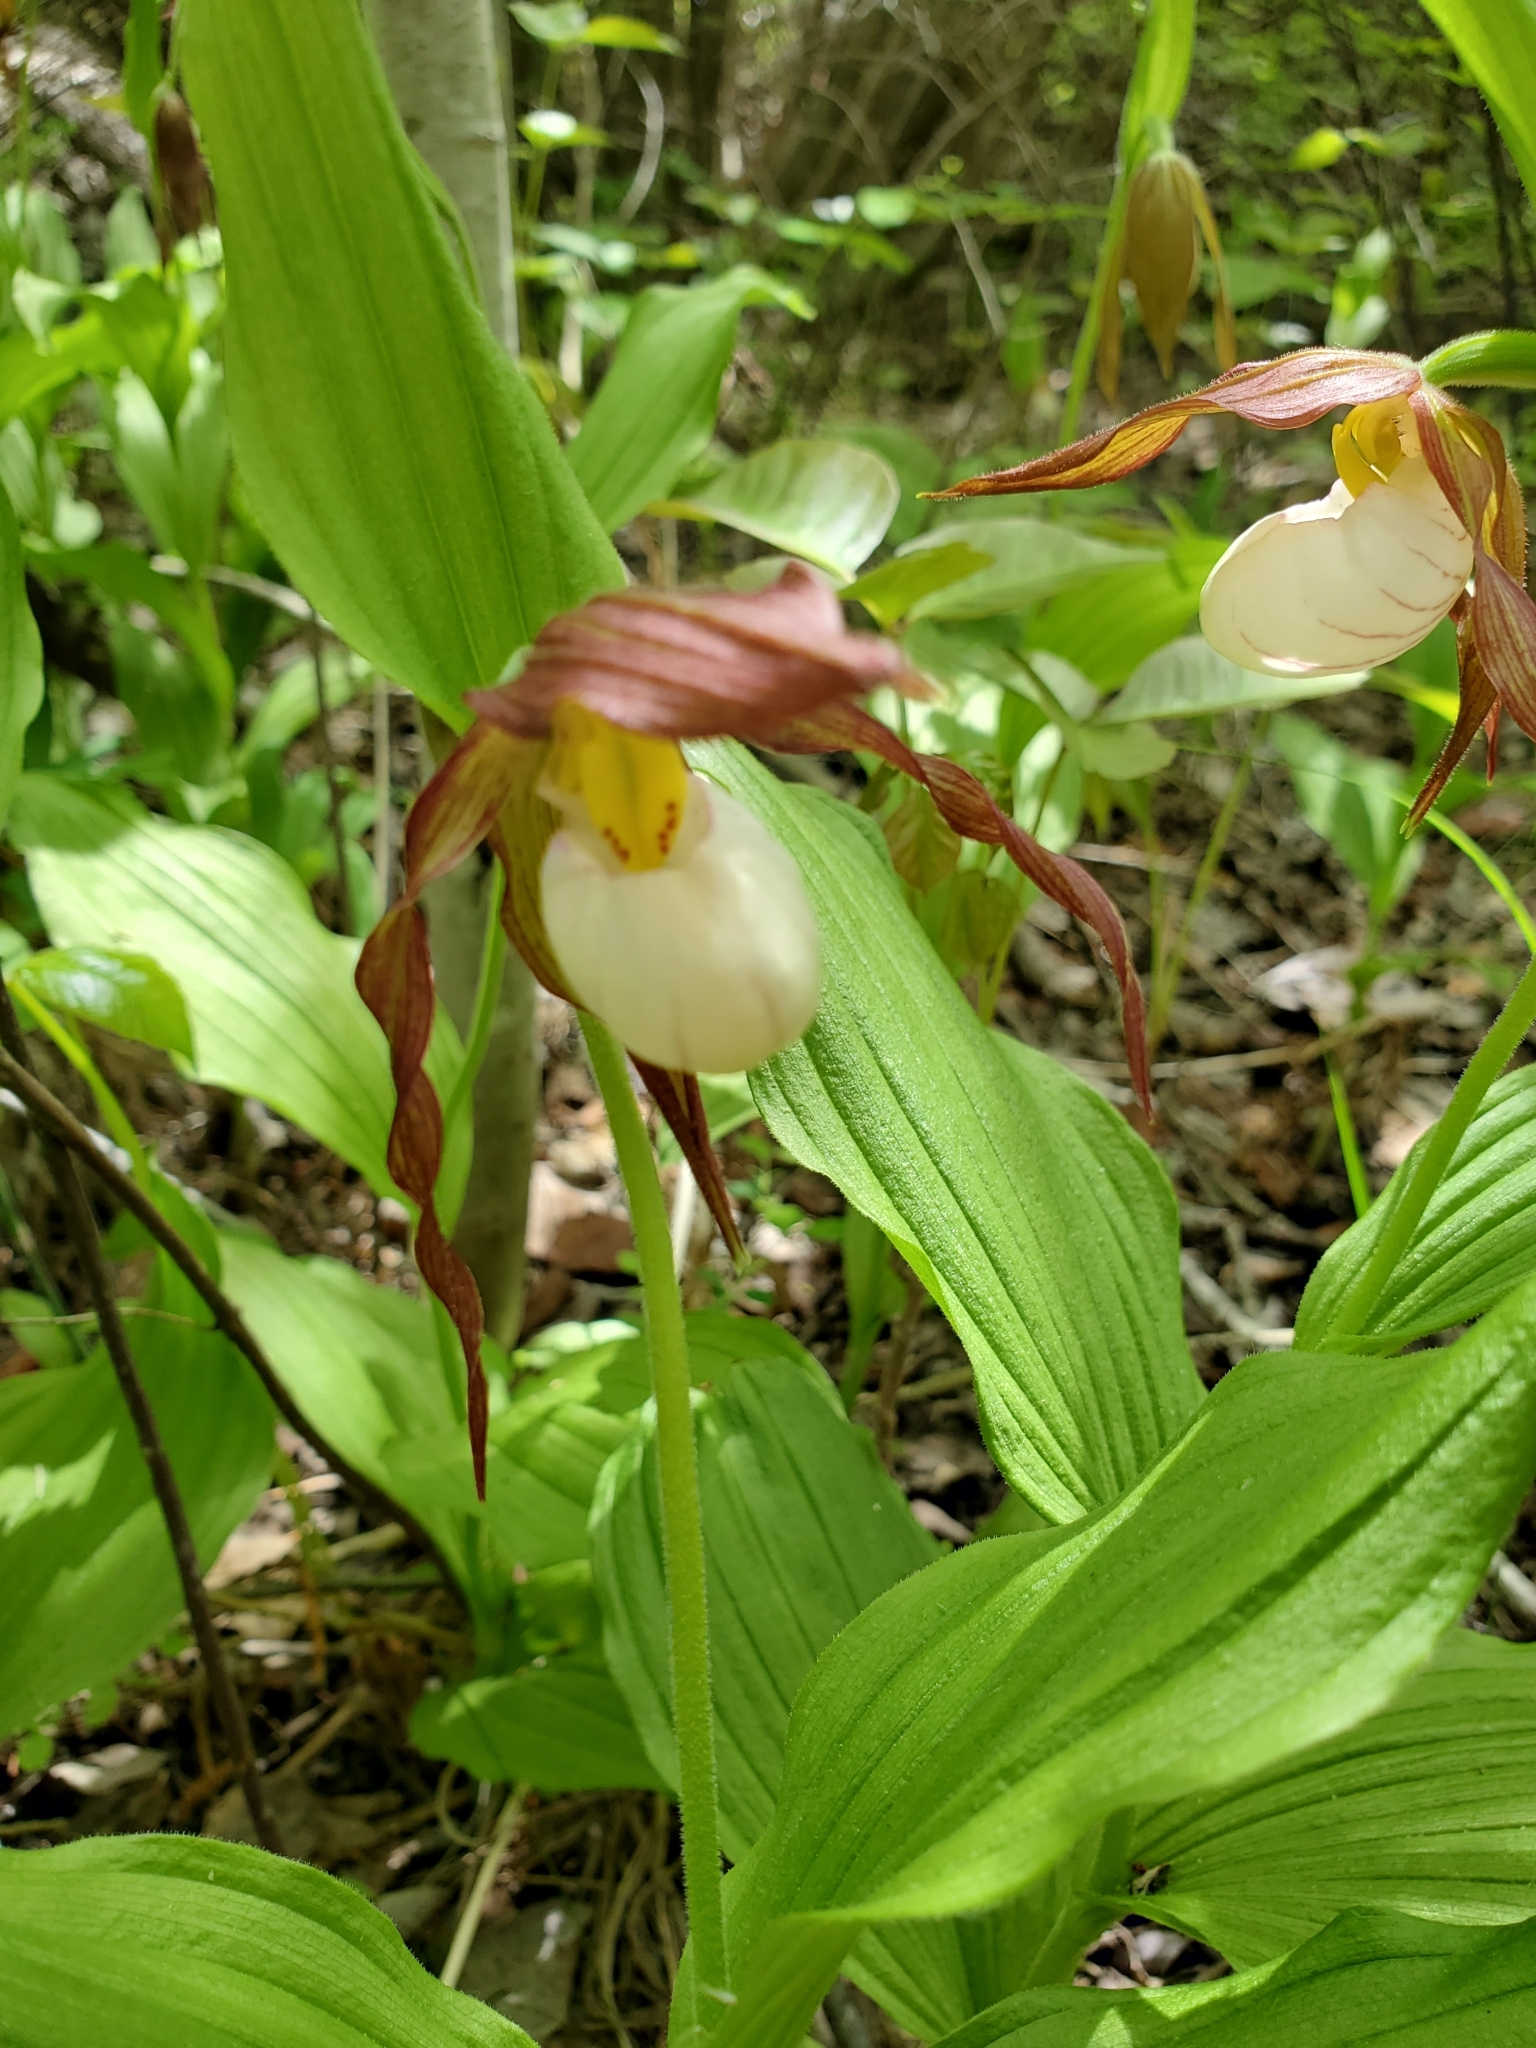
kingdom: Plantae
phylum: Tracheophyta
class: Liliopsida
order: Asparagales
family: Orchidaceae
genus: Cypripedium
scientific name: Cypripedium columbianum
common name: Columbia lady's-slipper
